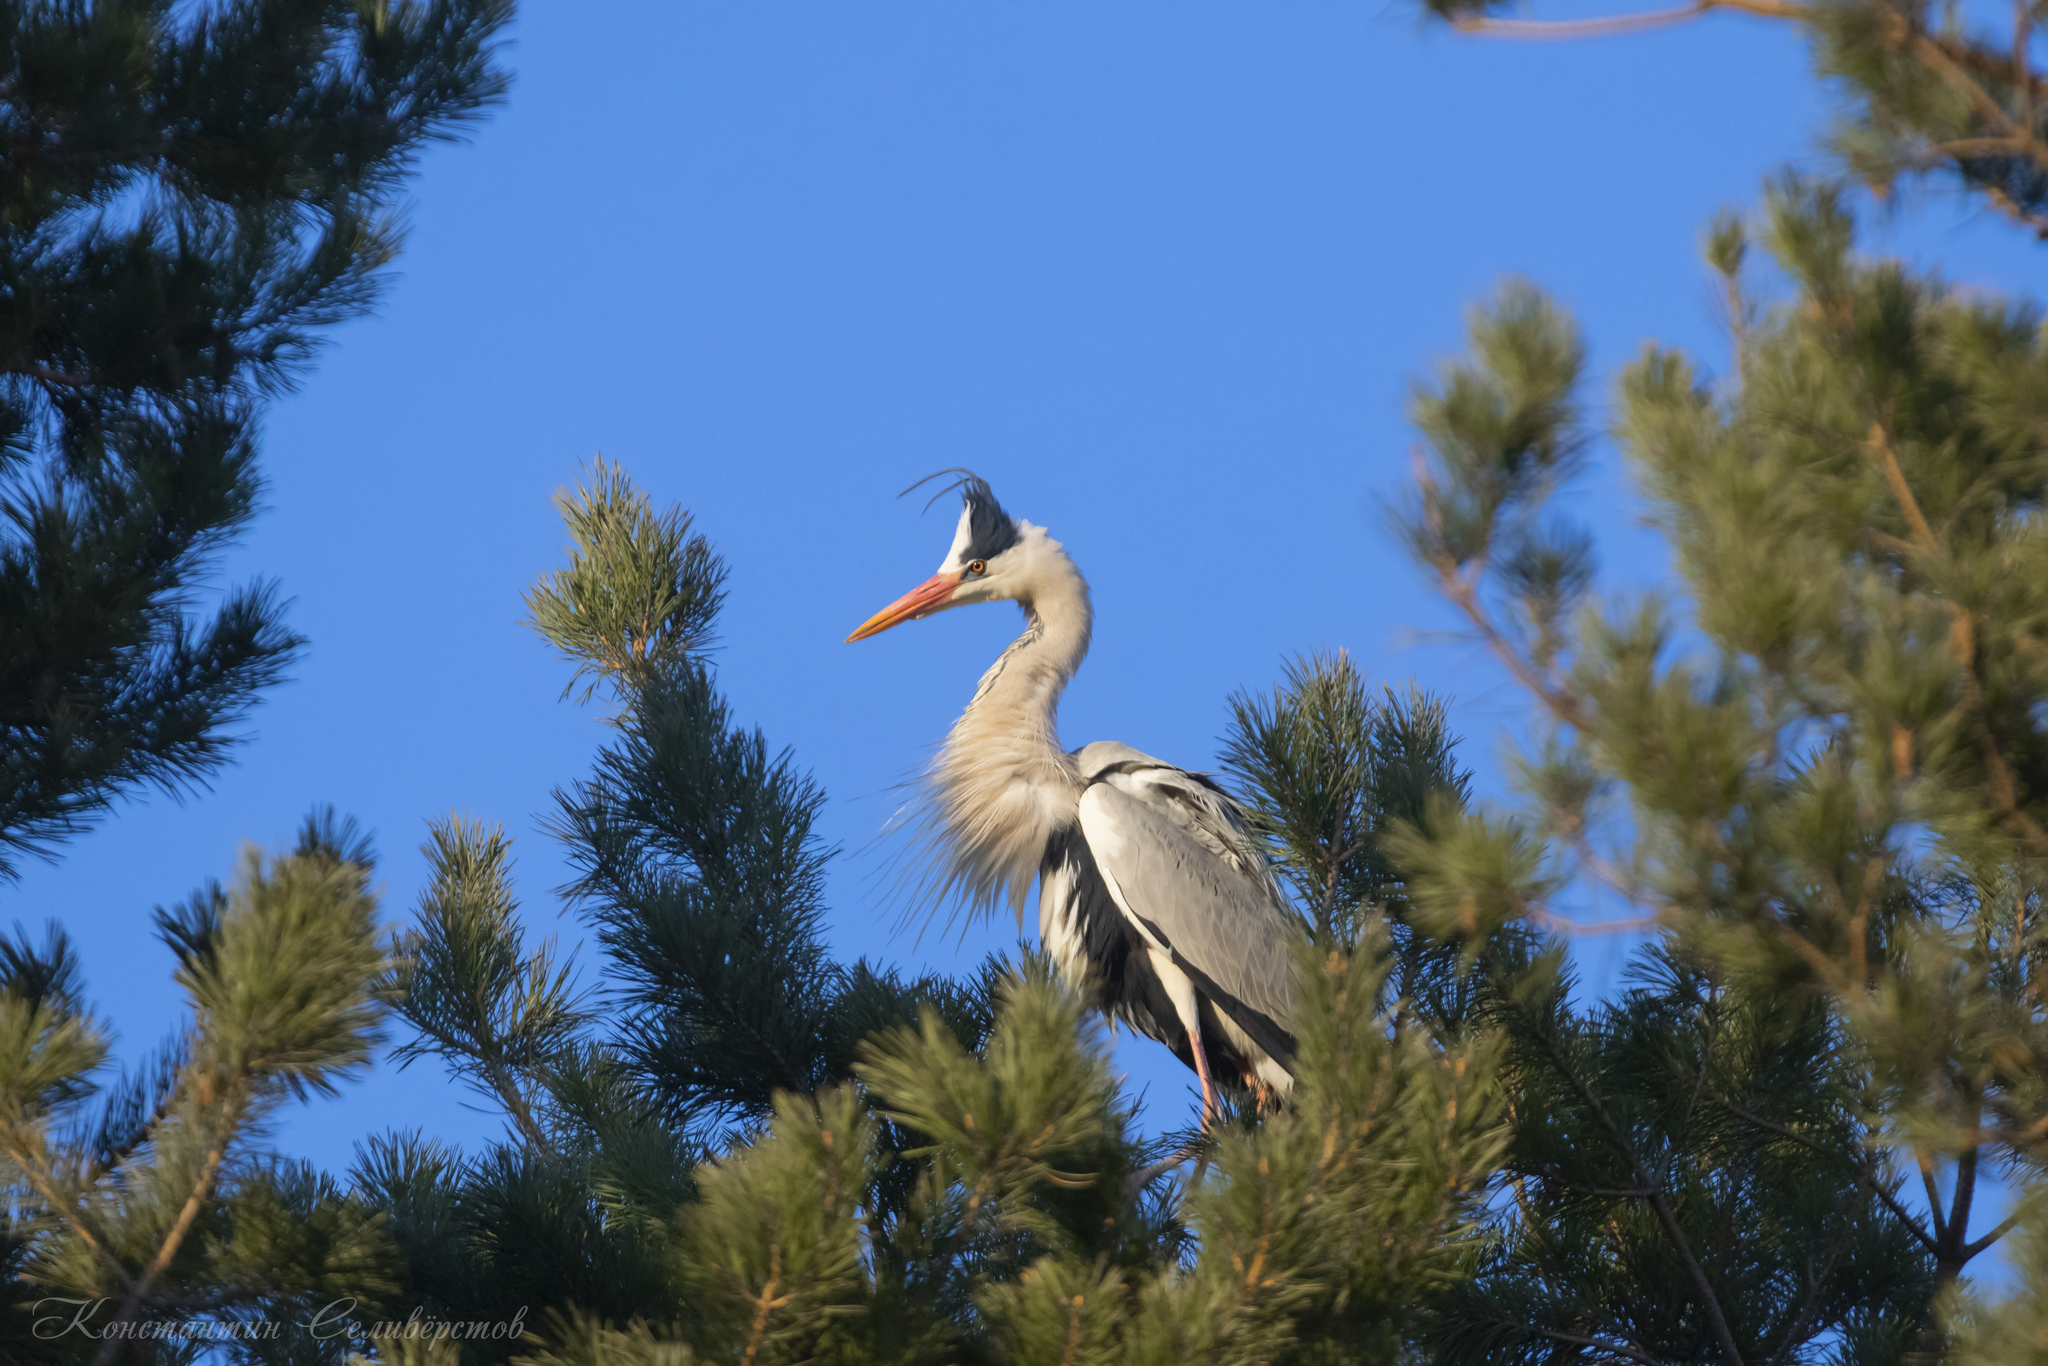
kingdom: Animalia
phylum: Chordata
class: Aves
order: Pelecaniformes
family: Ardeidae
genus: Ardea
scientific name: Ardea cinerea
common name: Grey heron
